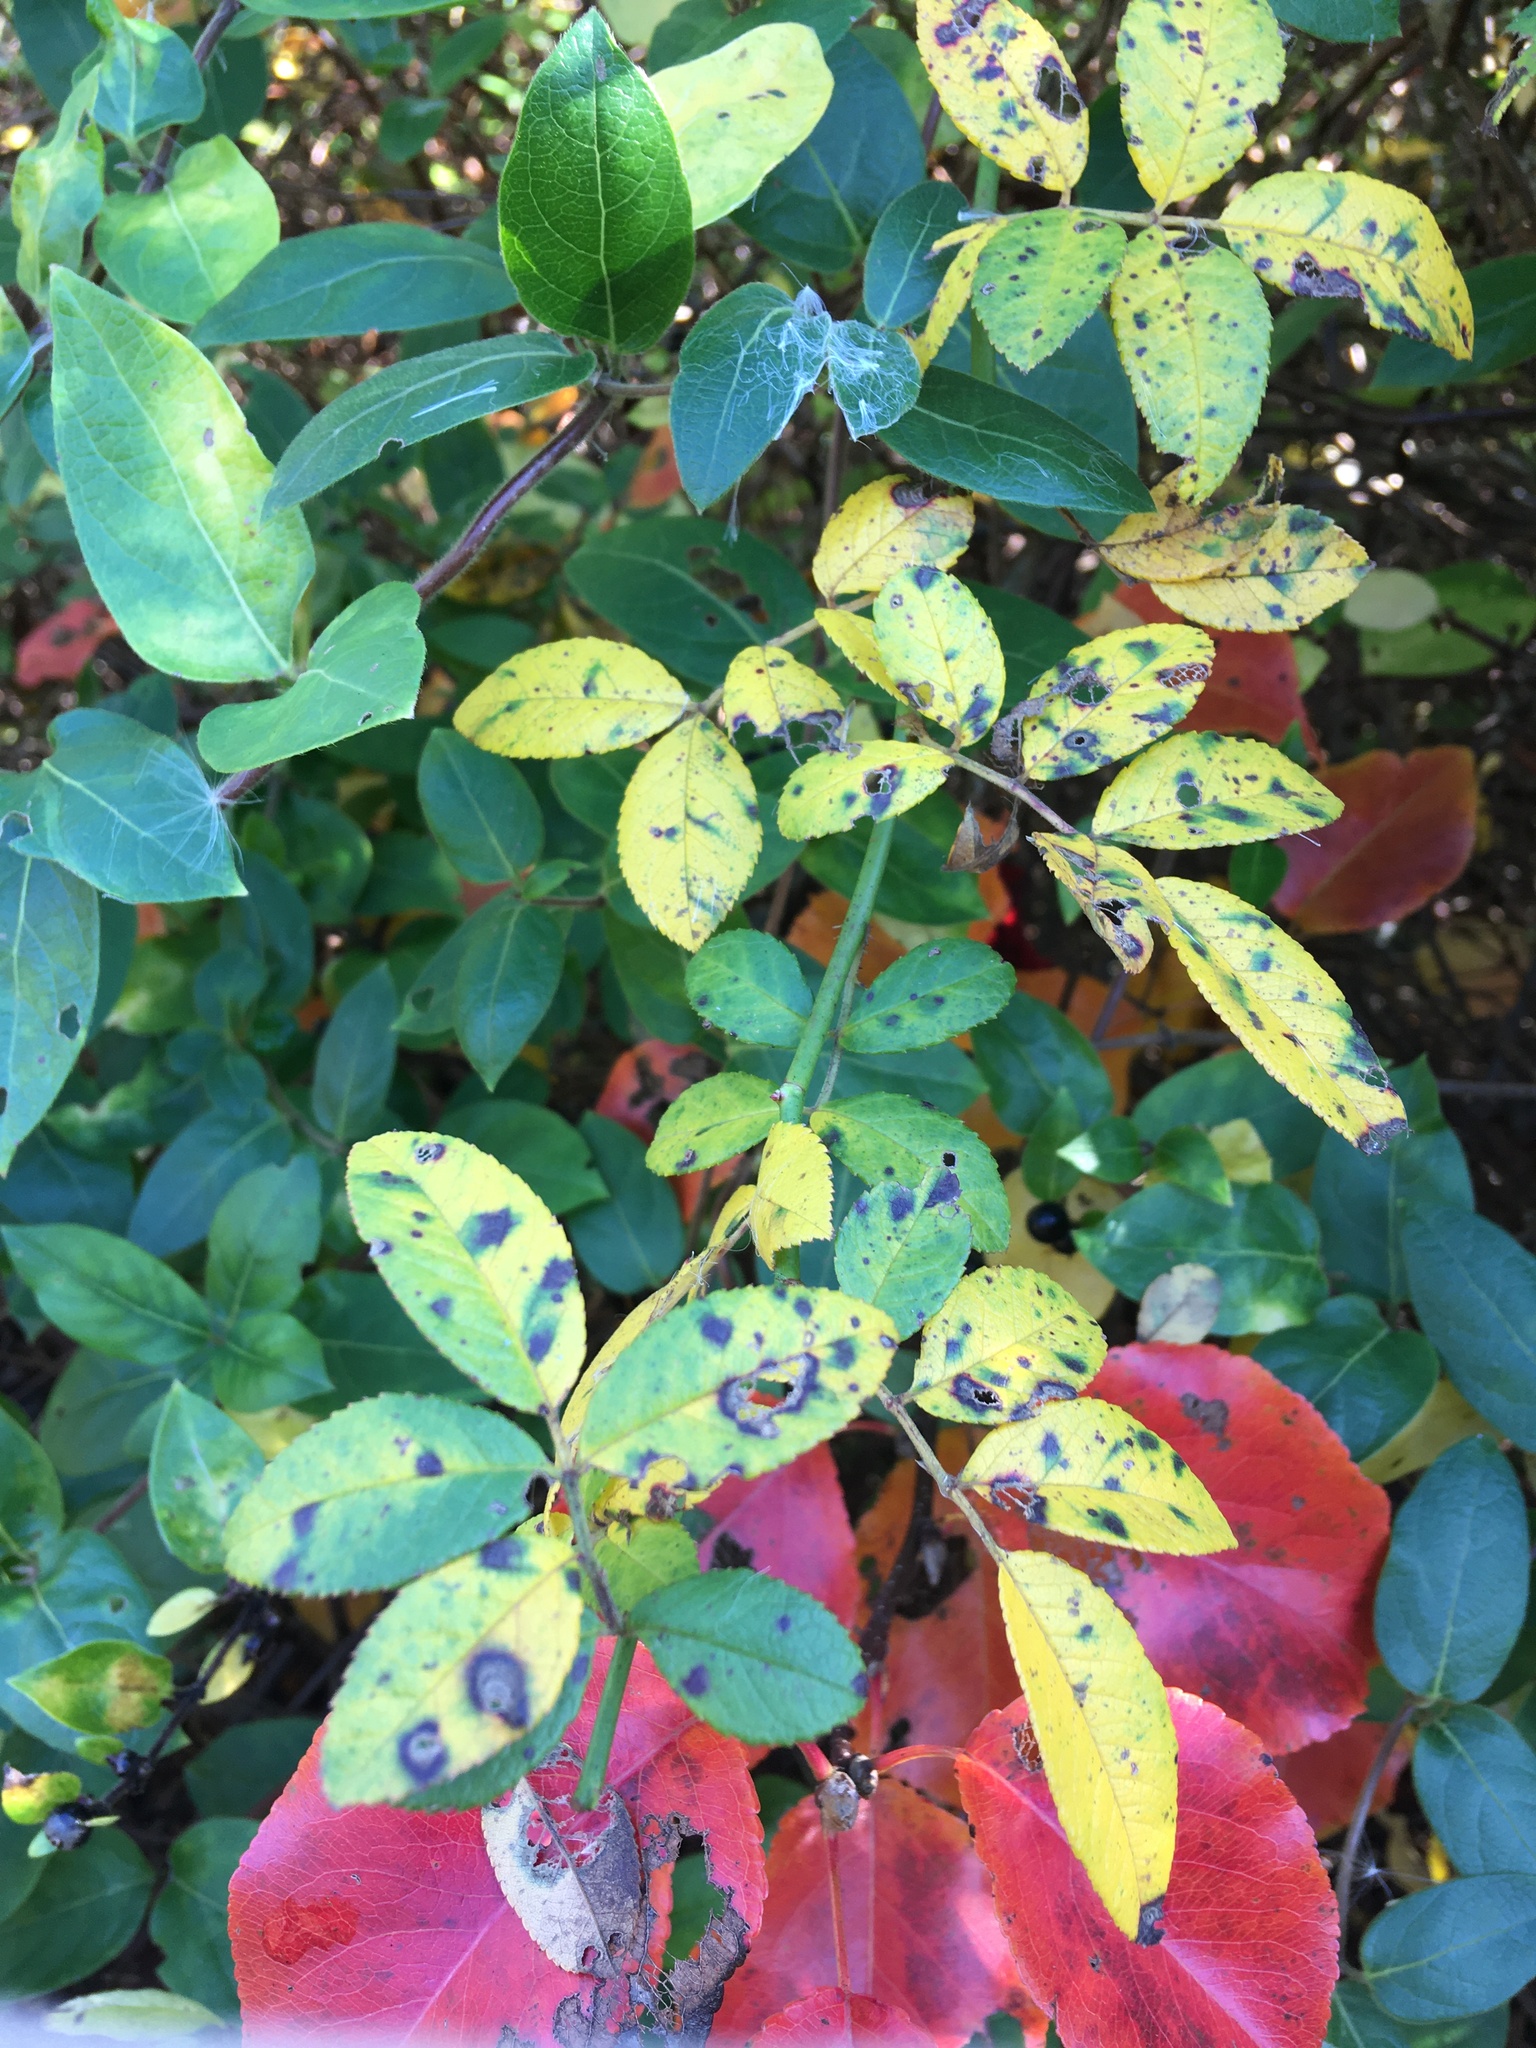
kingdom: Plantae
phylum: Tracheophyta
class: Magnoliopsida
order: Rosales
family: Rosaceae
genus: Rosa
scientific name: Rosa multiflora
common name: Multiflora rose
